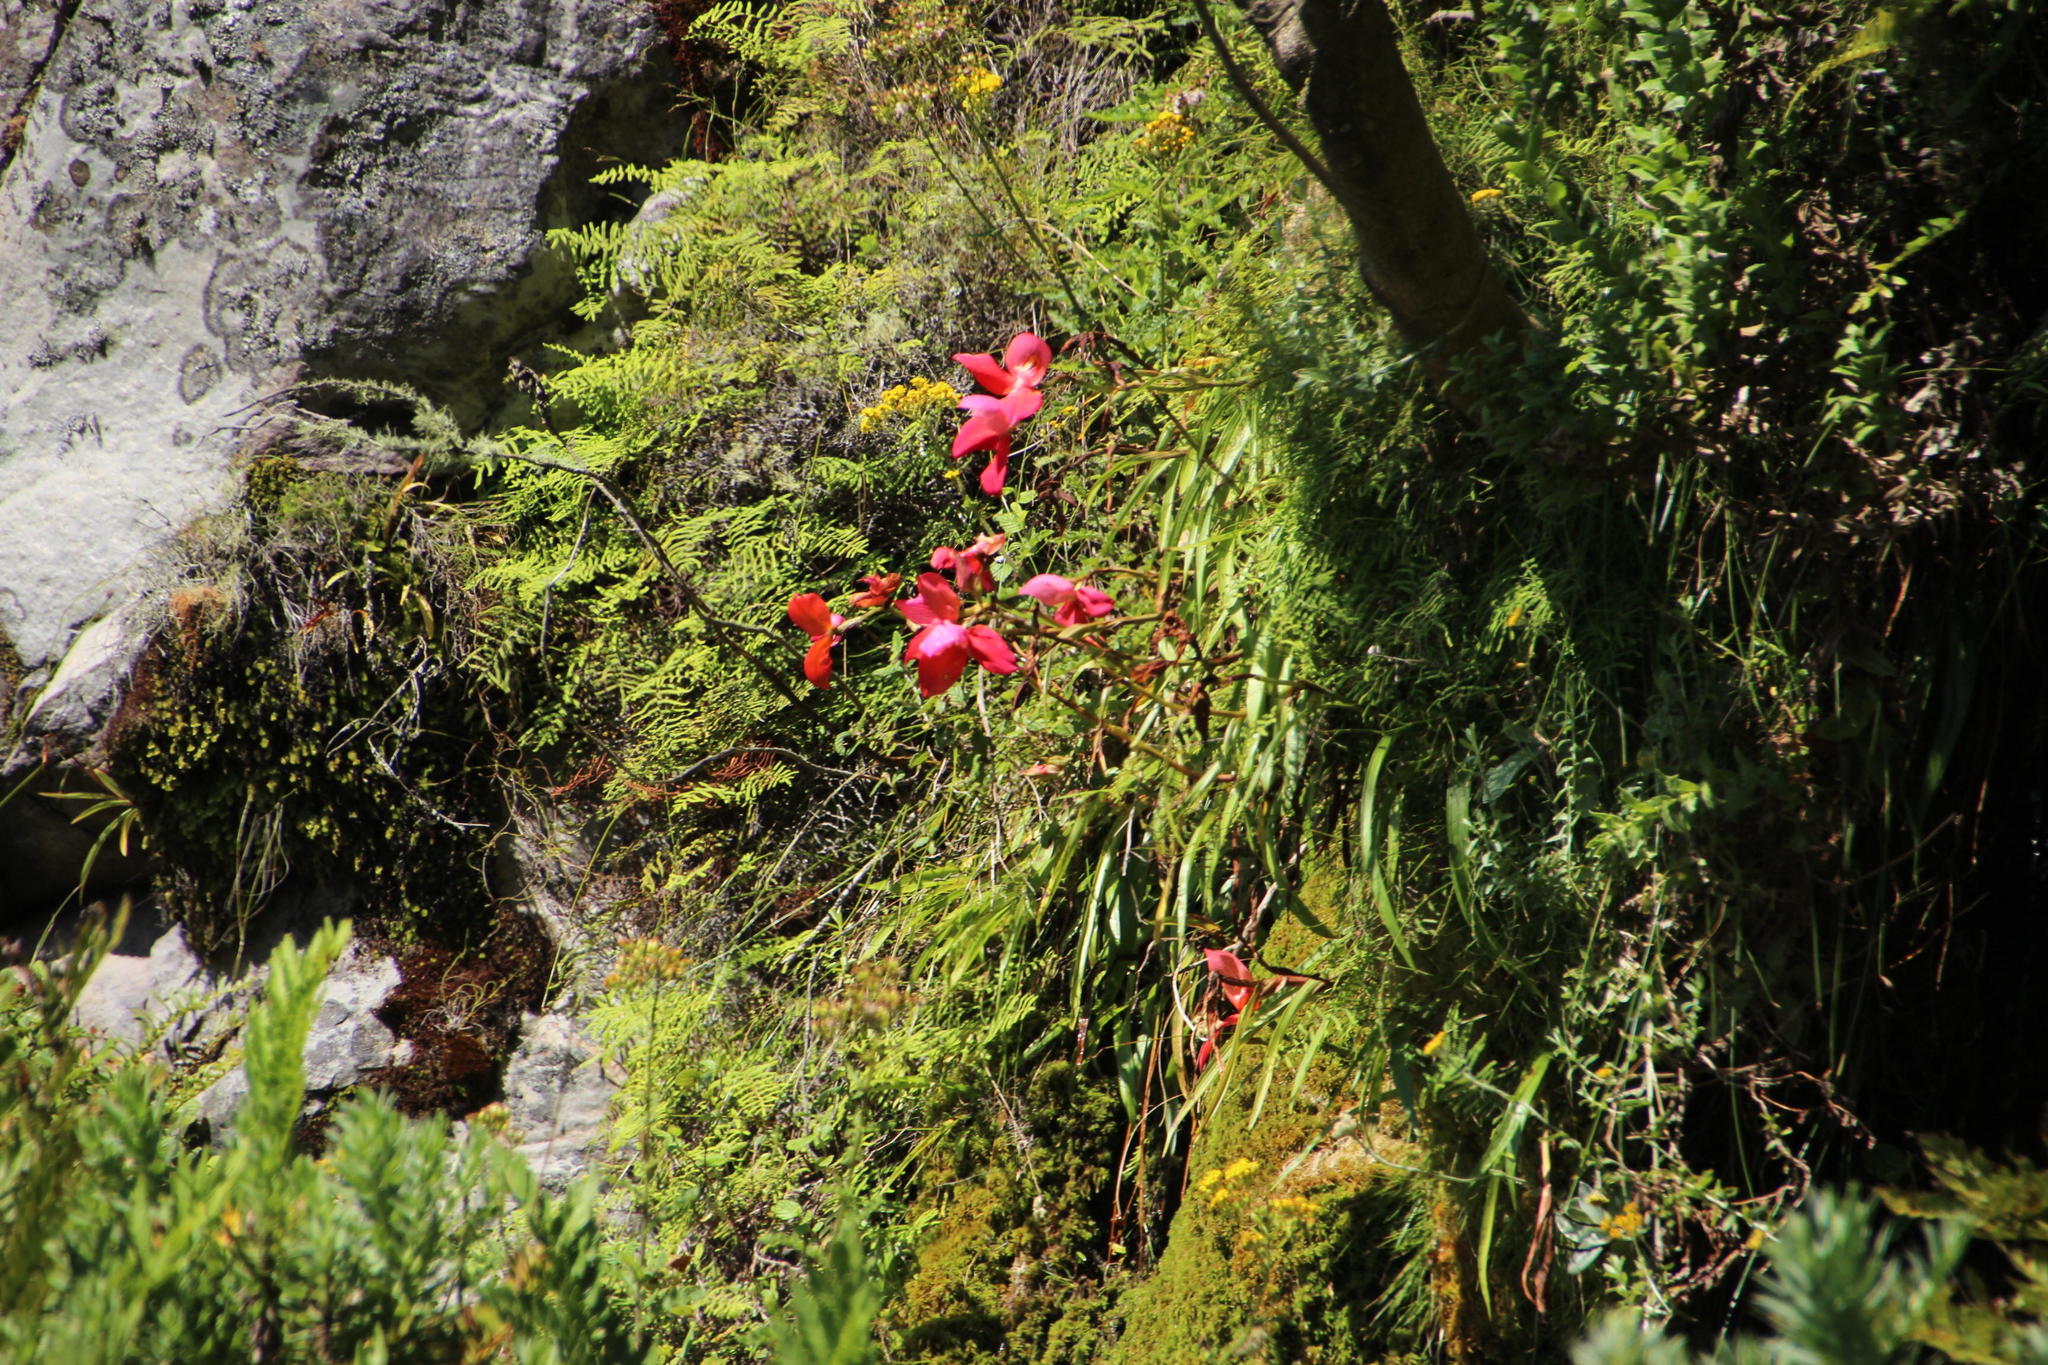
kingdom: Plantae
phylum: Tracheophyta
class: Liliopsida
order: Asparagales
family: Orchidaceae
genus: Disa
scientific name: Disa uniflora
